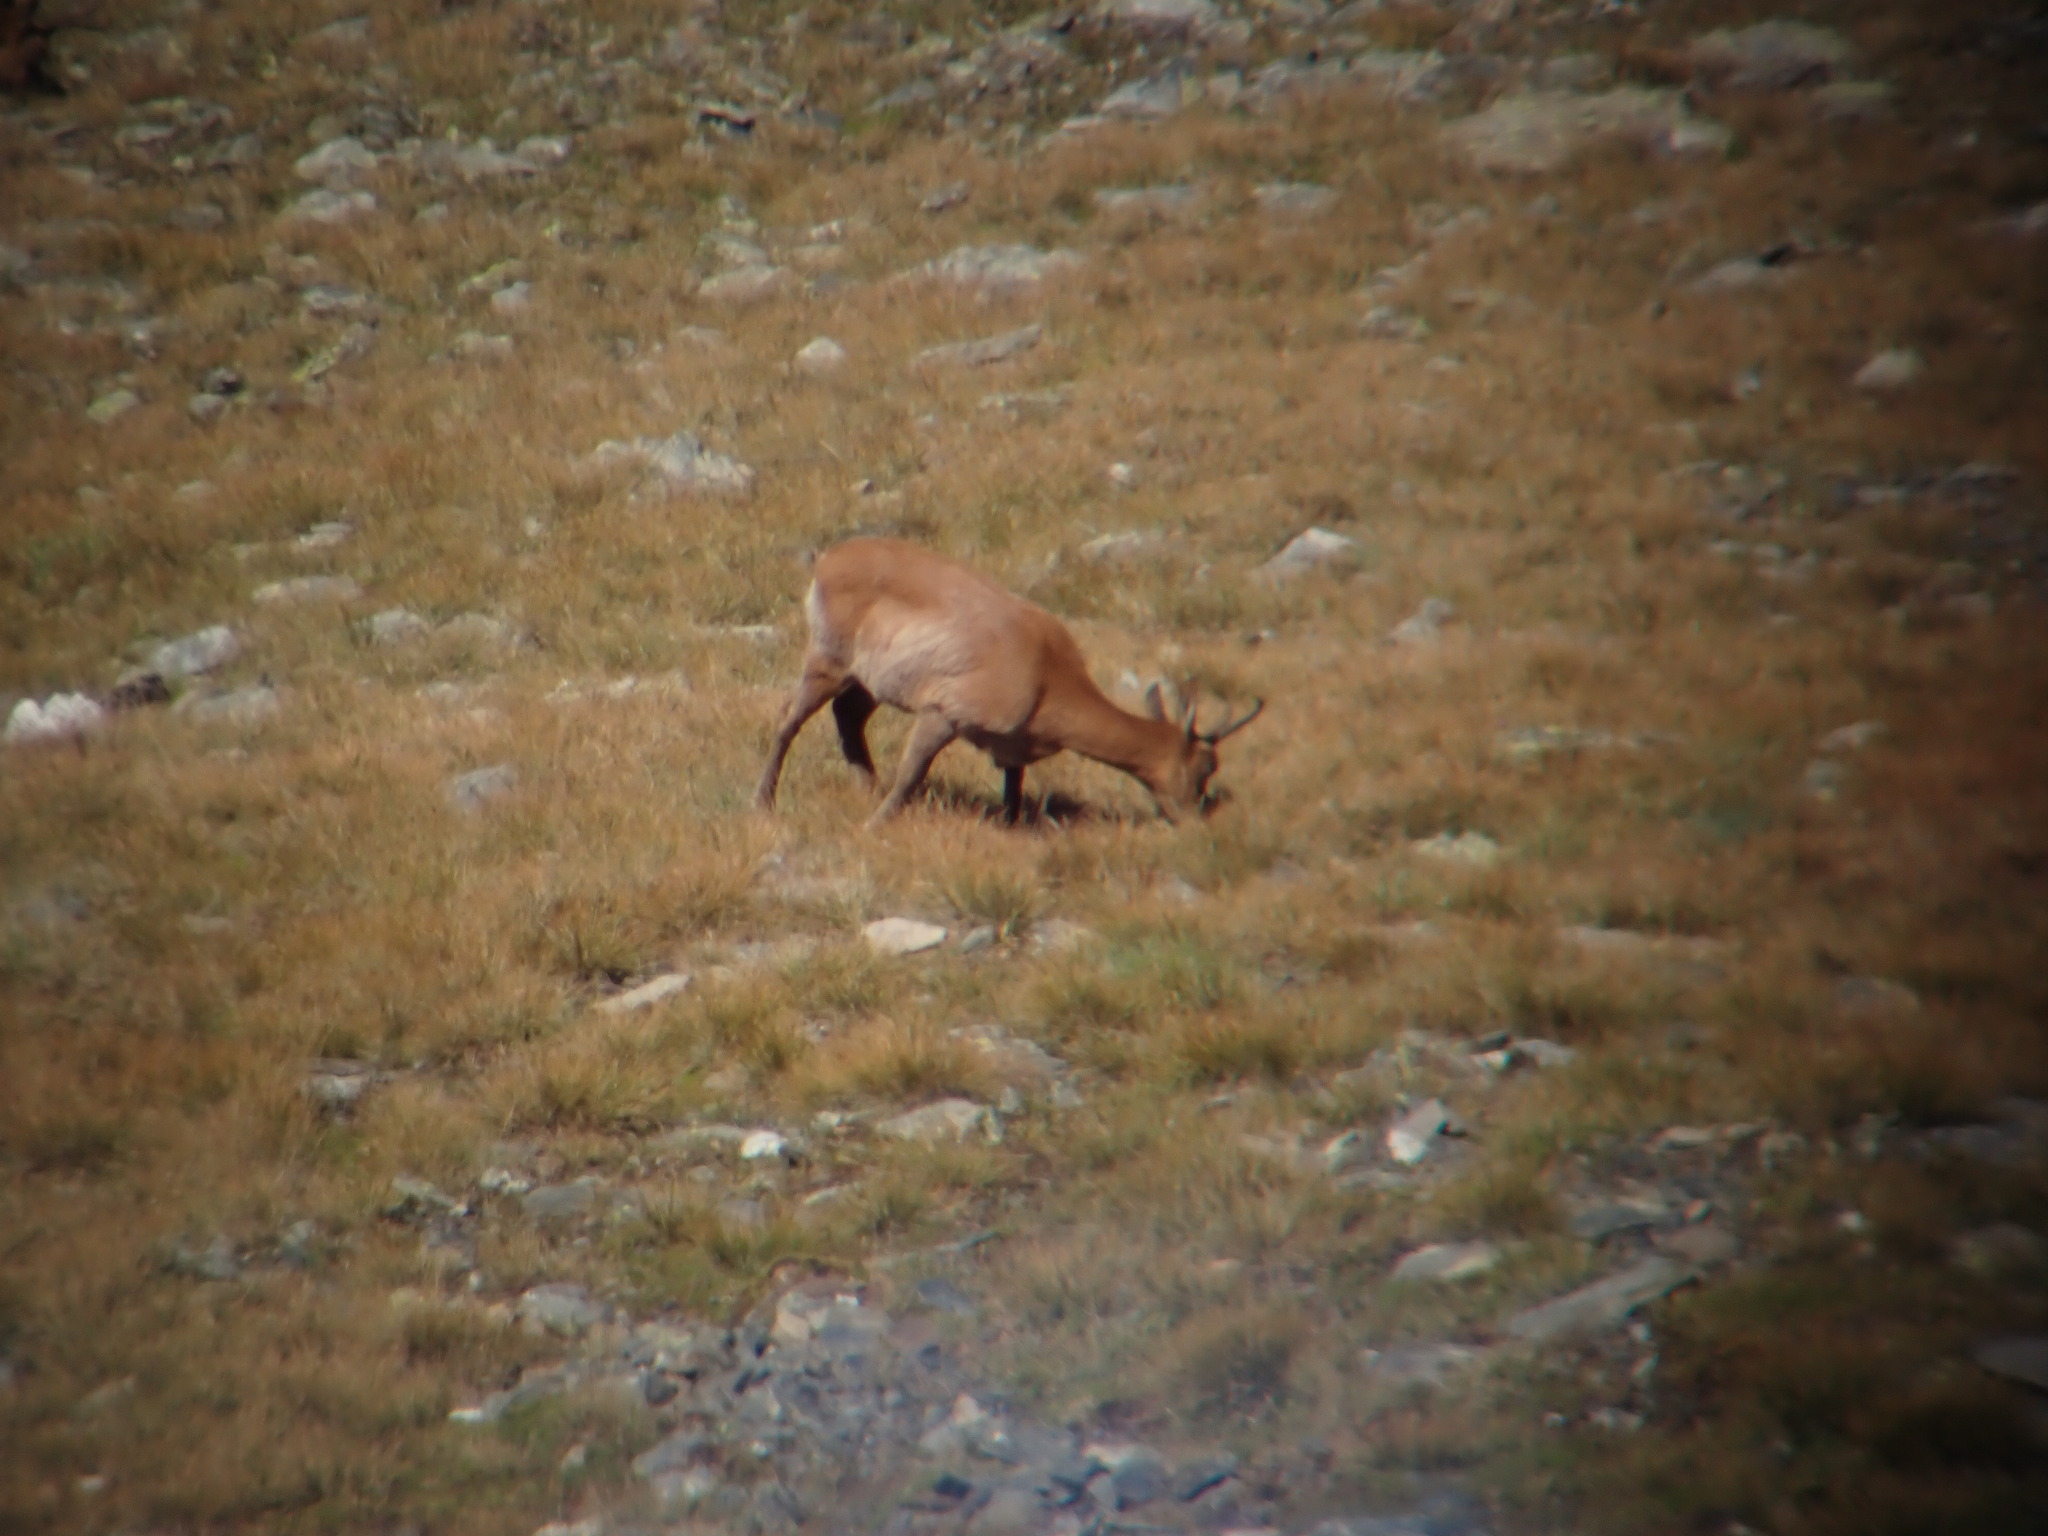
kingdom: Animalia
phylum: Chordata
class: Mammalia
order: Artiodactyla
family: Bovidae
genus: Rupicapra
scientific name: Rupicapra pyrenaica
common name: Pyrenean chamois
